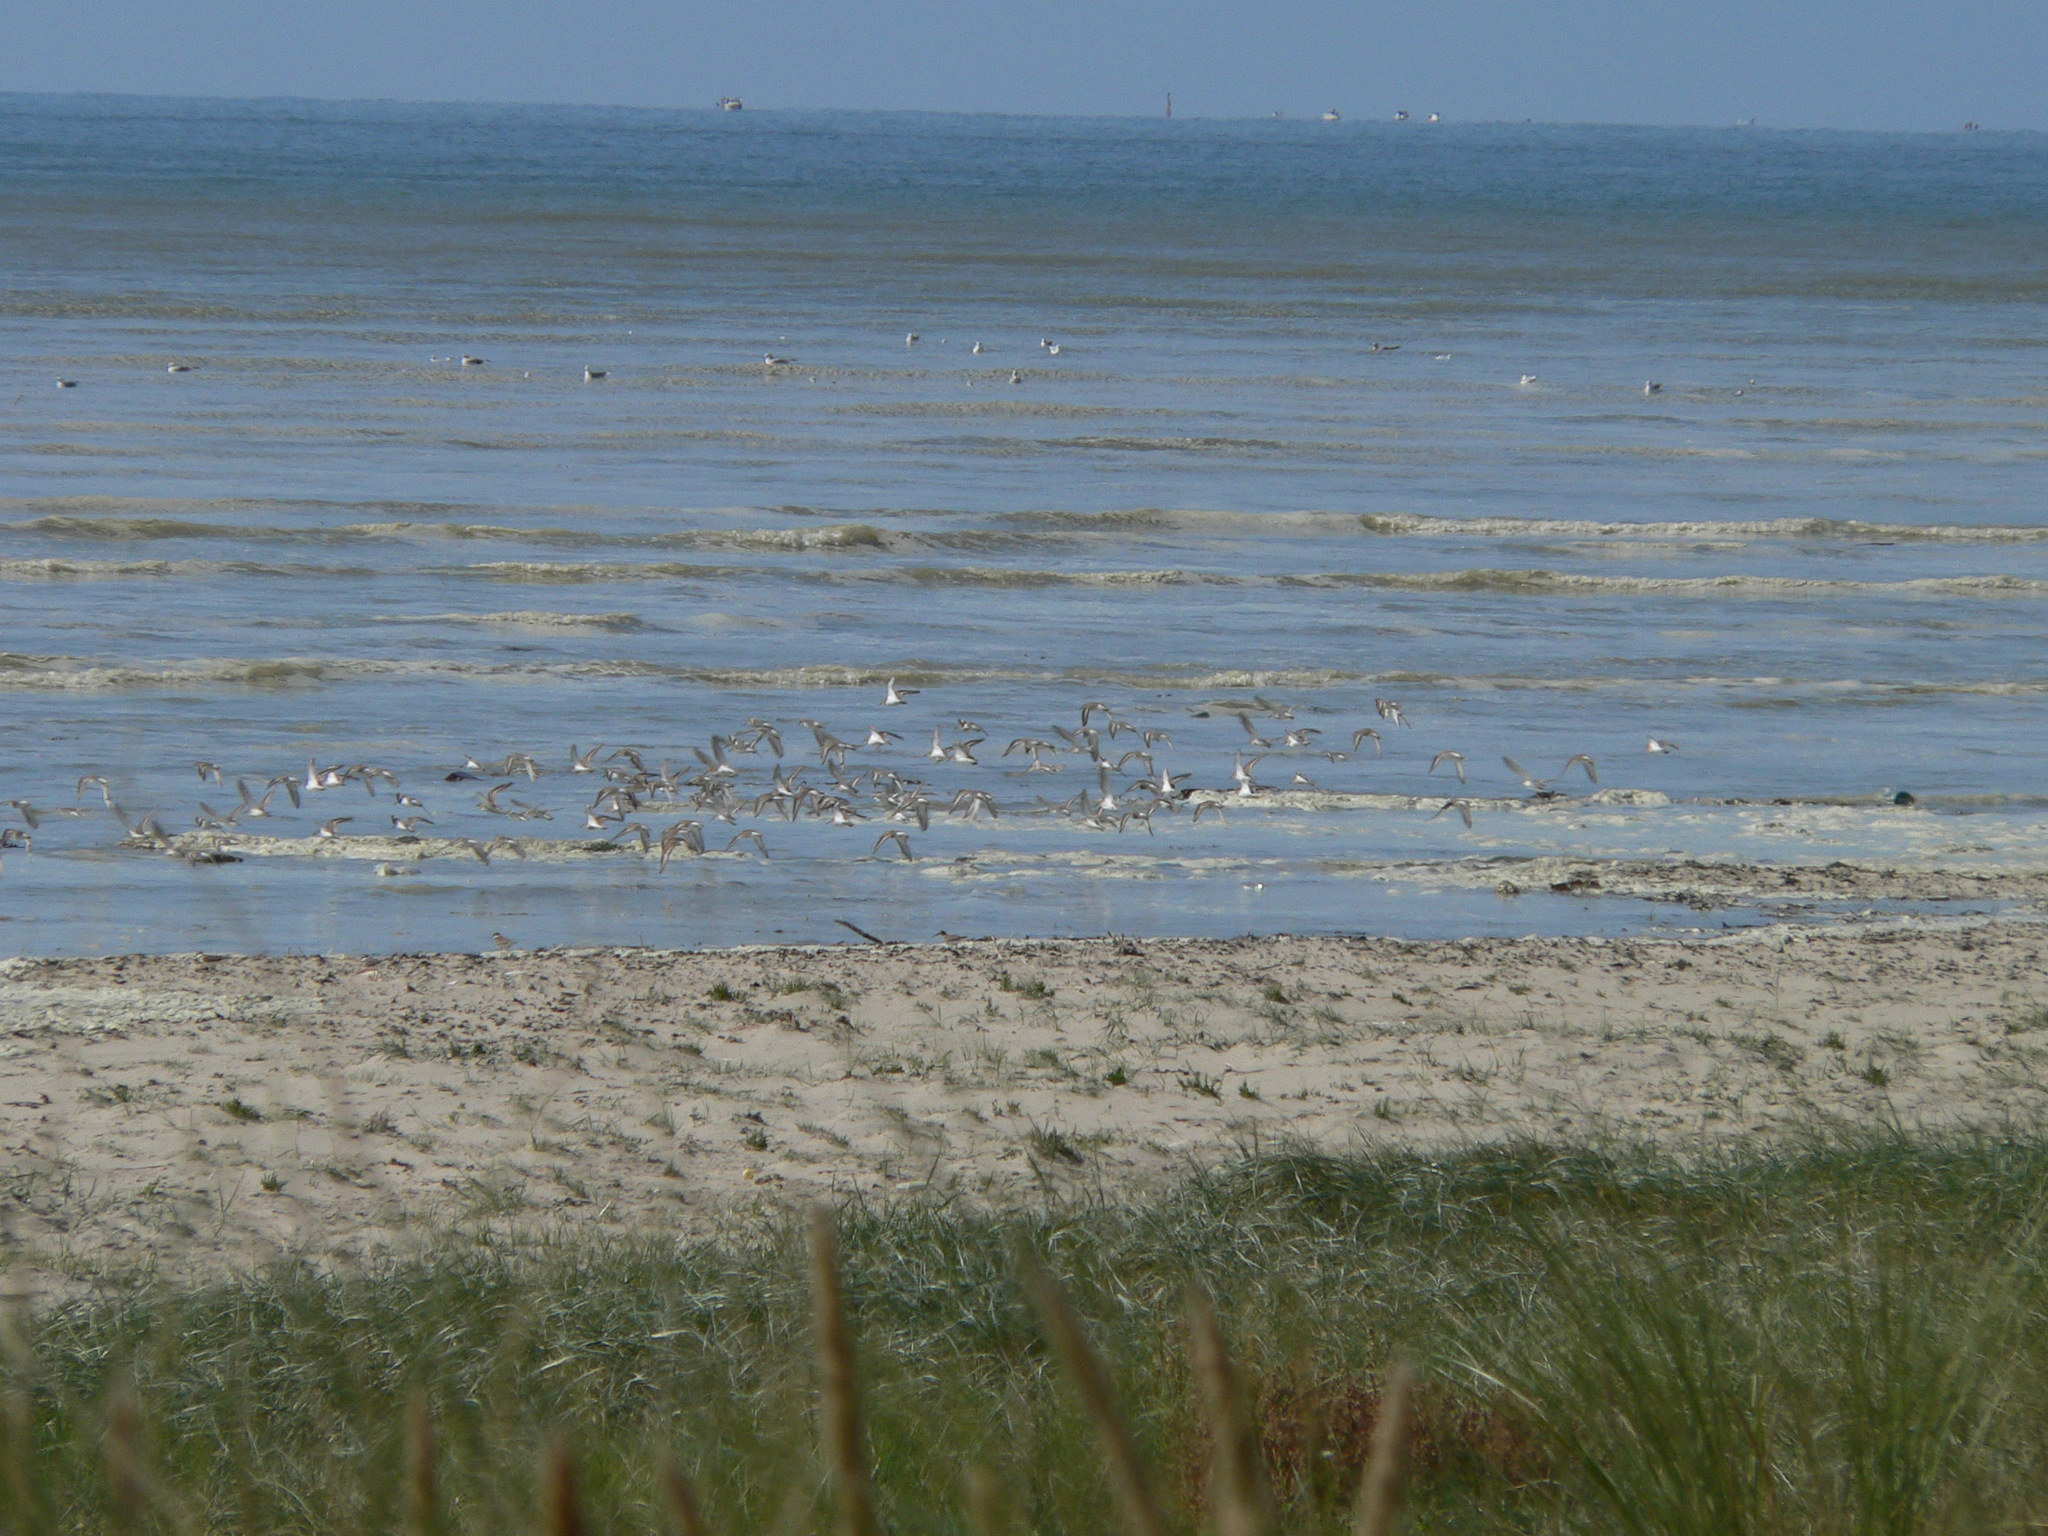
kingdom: Animalia
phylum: Chordata
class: Aves
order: Charadriiformes
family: Scolopacidae
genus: Calidris
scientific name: Calidris alpina
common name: Dunlin
